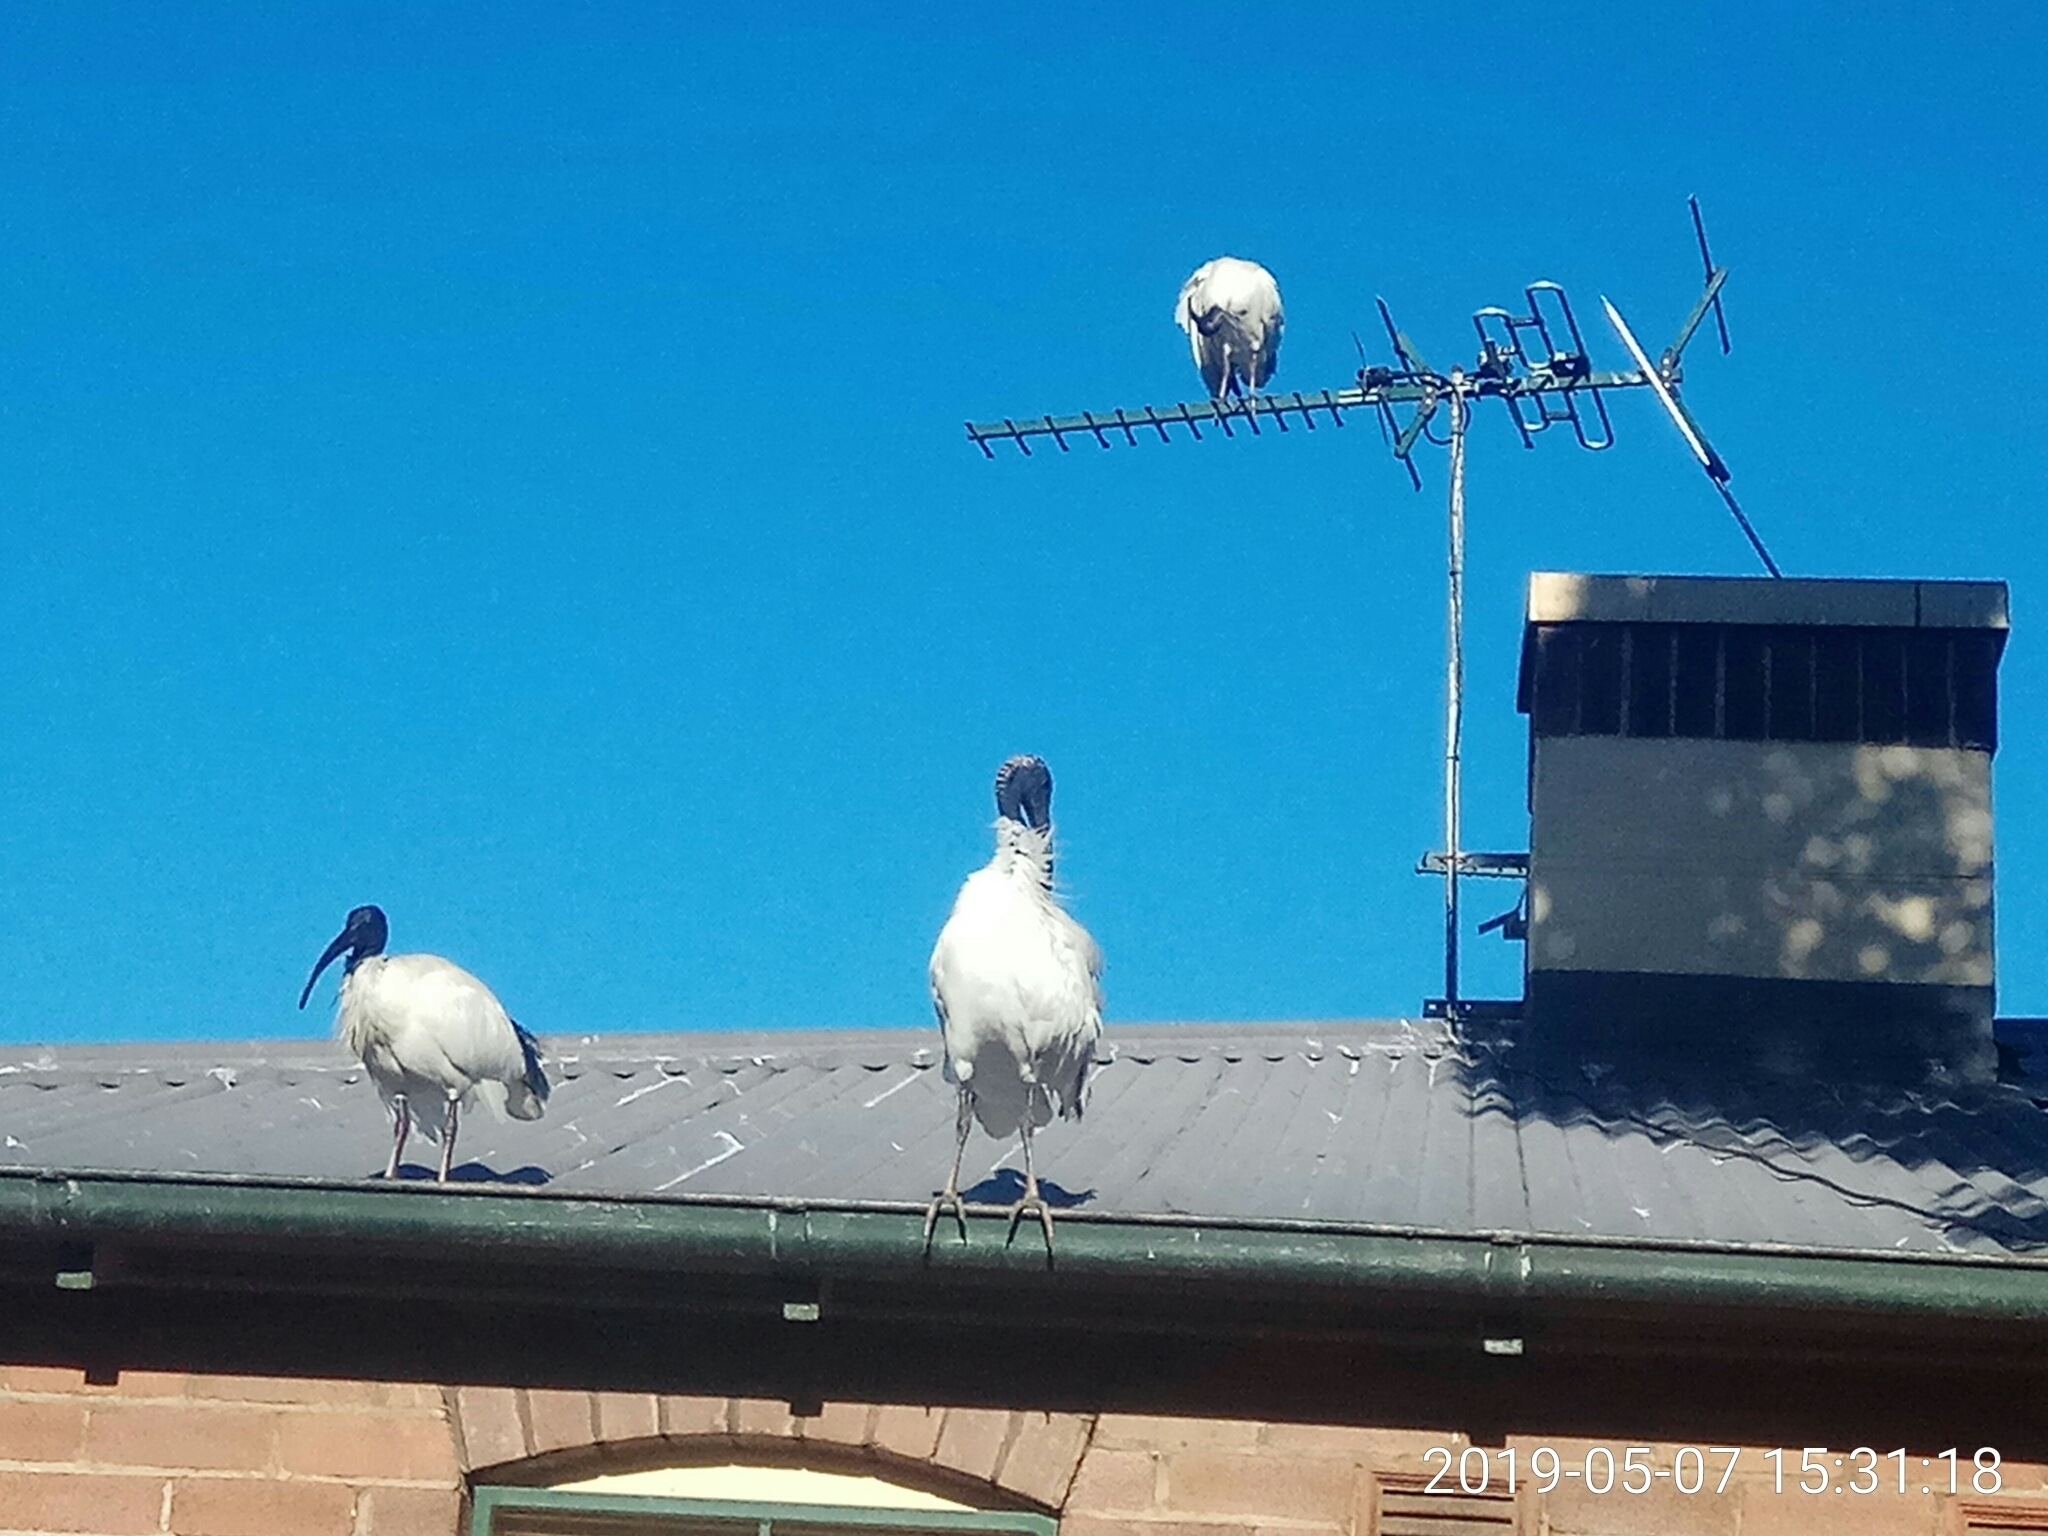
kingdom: Animalia
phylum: Chordata
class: Aves
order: Pelecaniformes
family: Threskiornithidae
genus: Threskiornis
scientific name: Threskiornis molucca
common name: Australian white ibis
